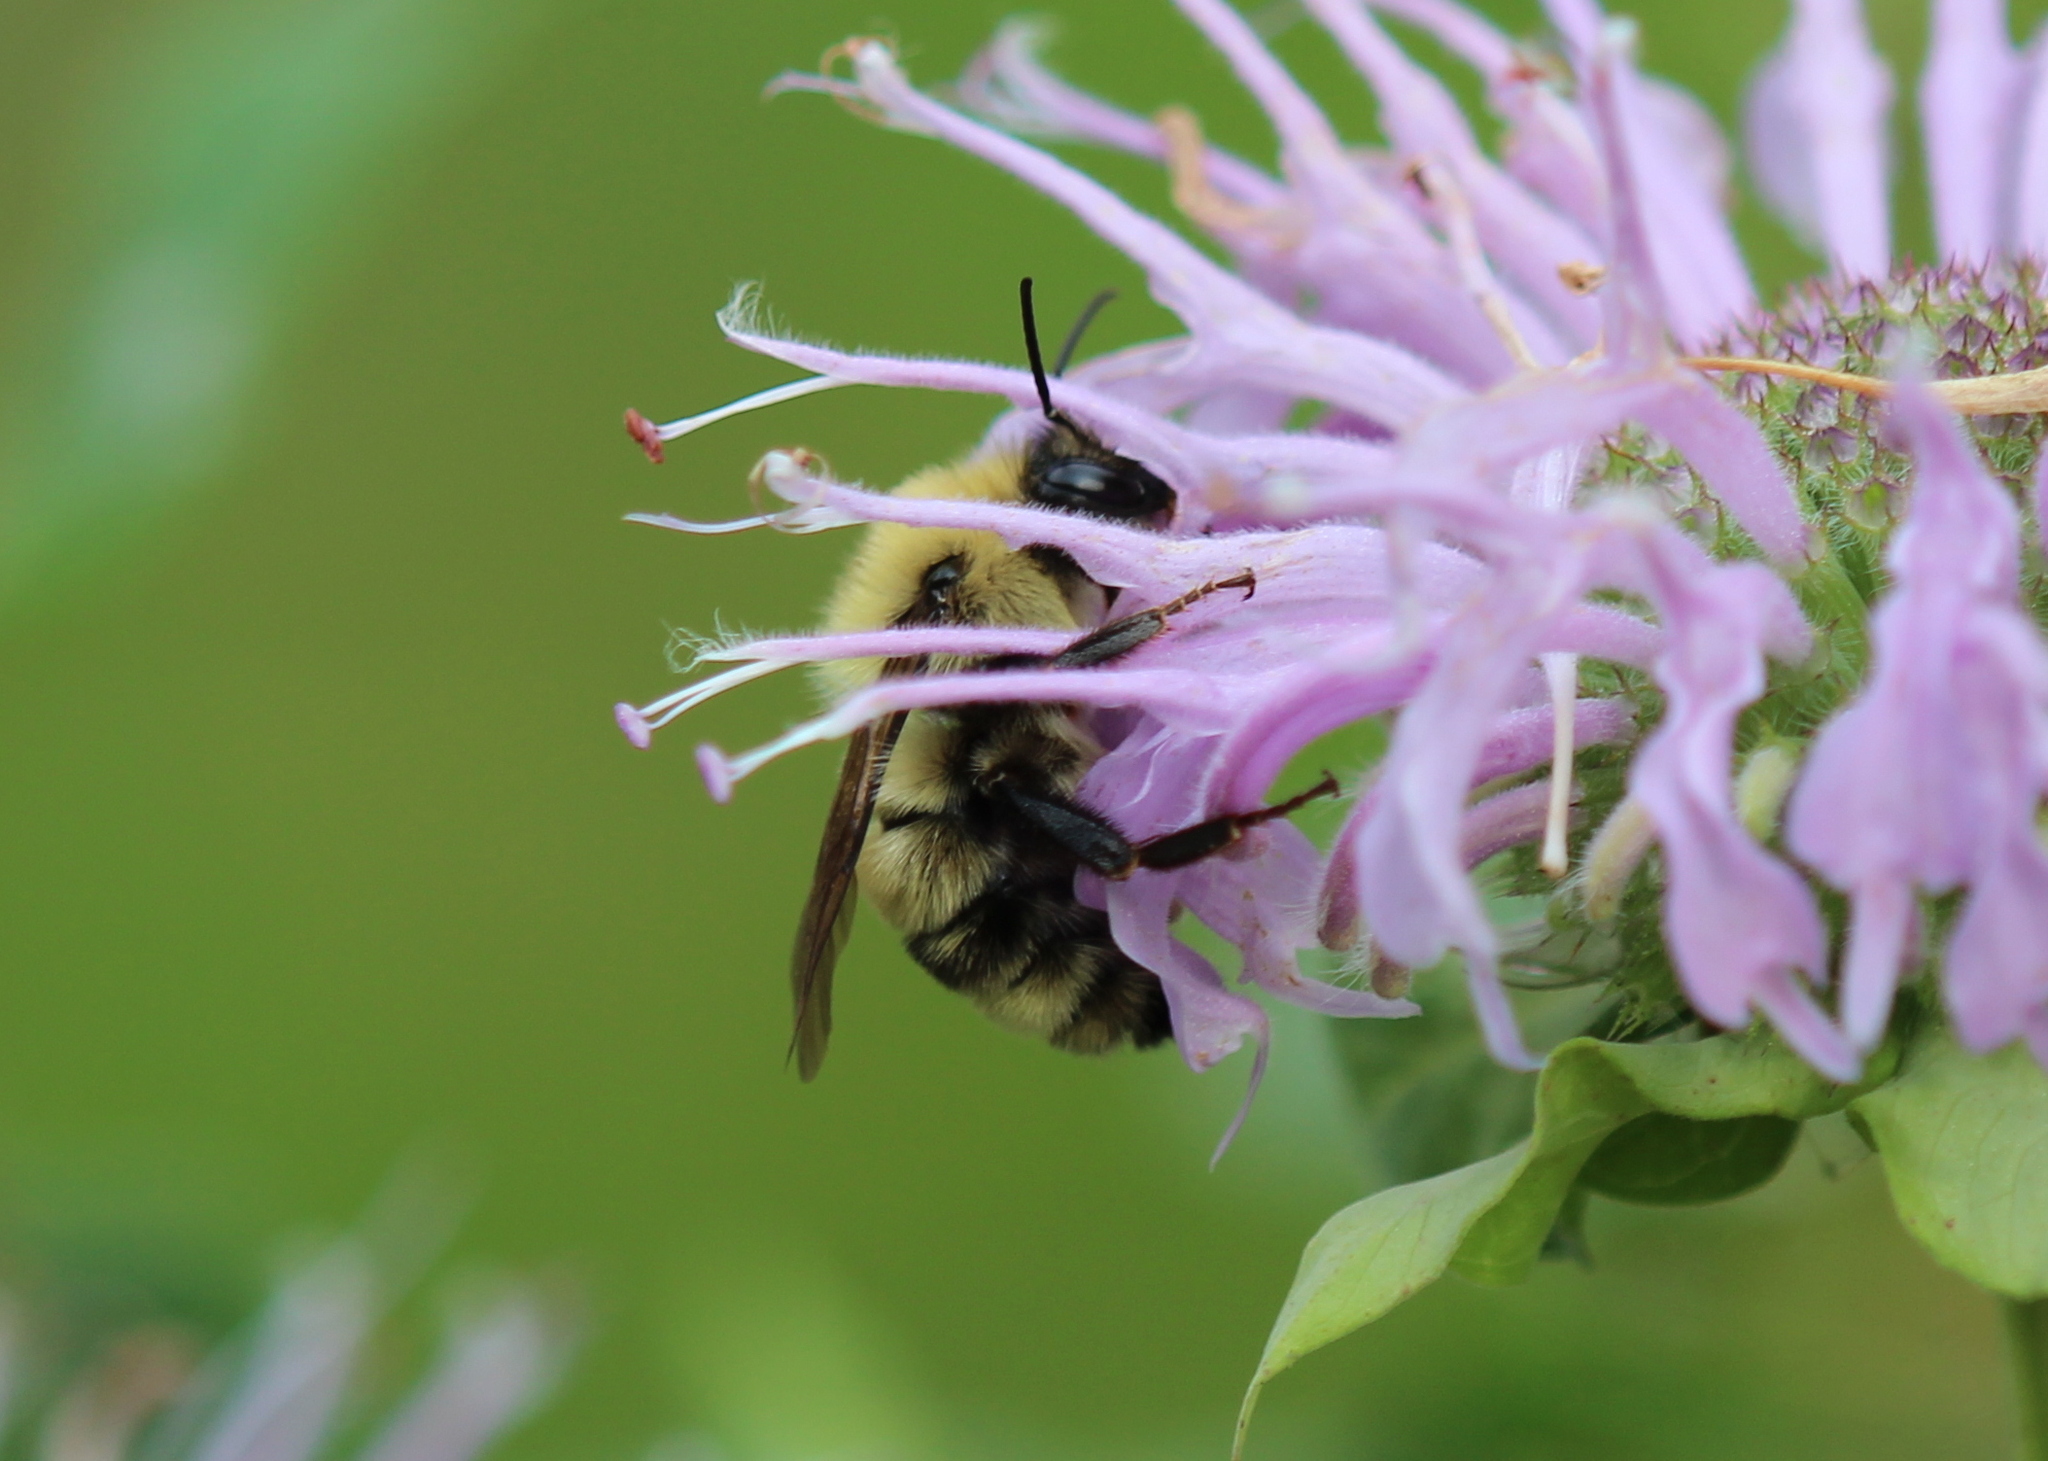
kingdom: Animalia
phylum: Arthropoda
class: Insecta
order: Hymenoptera
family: Apidae
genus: Bombus
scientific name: Bombus bimaculatus
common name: Two-spotted bumble bee
